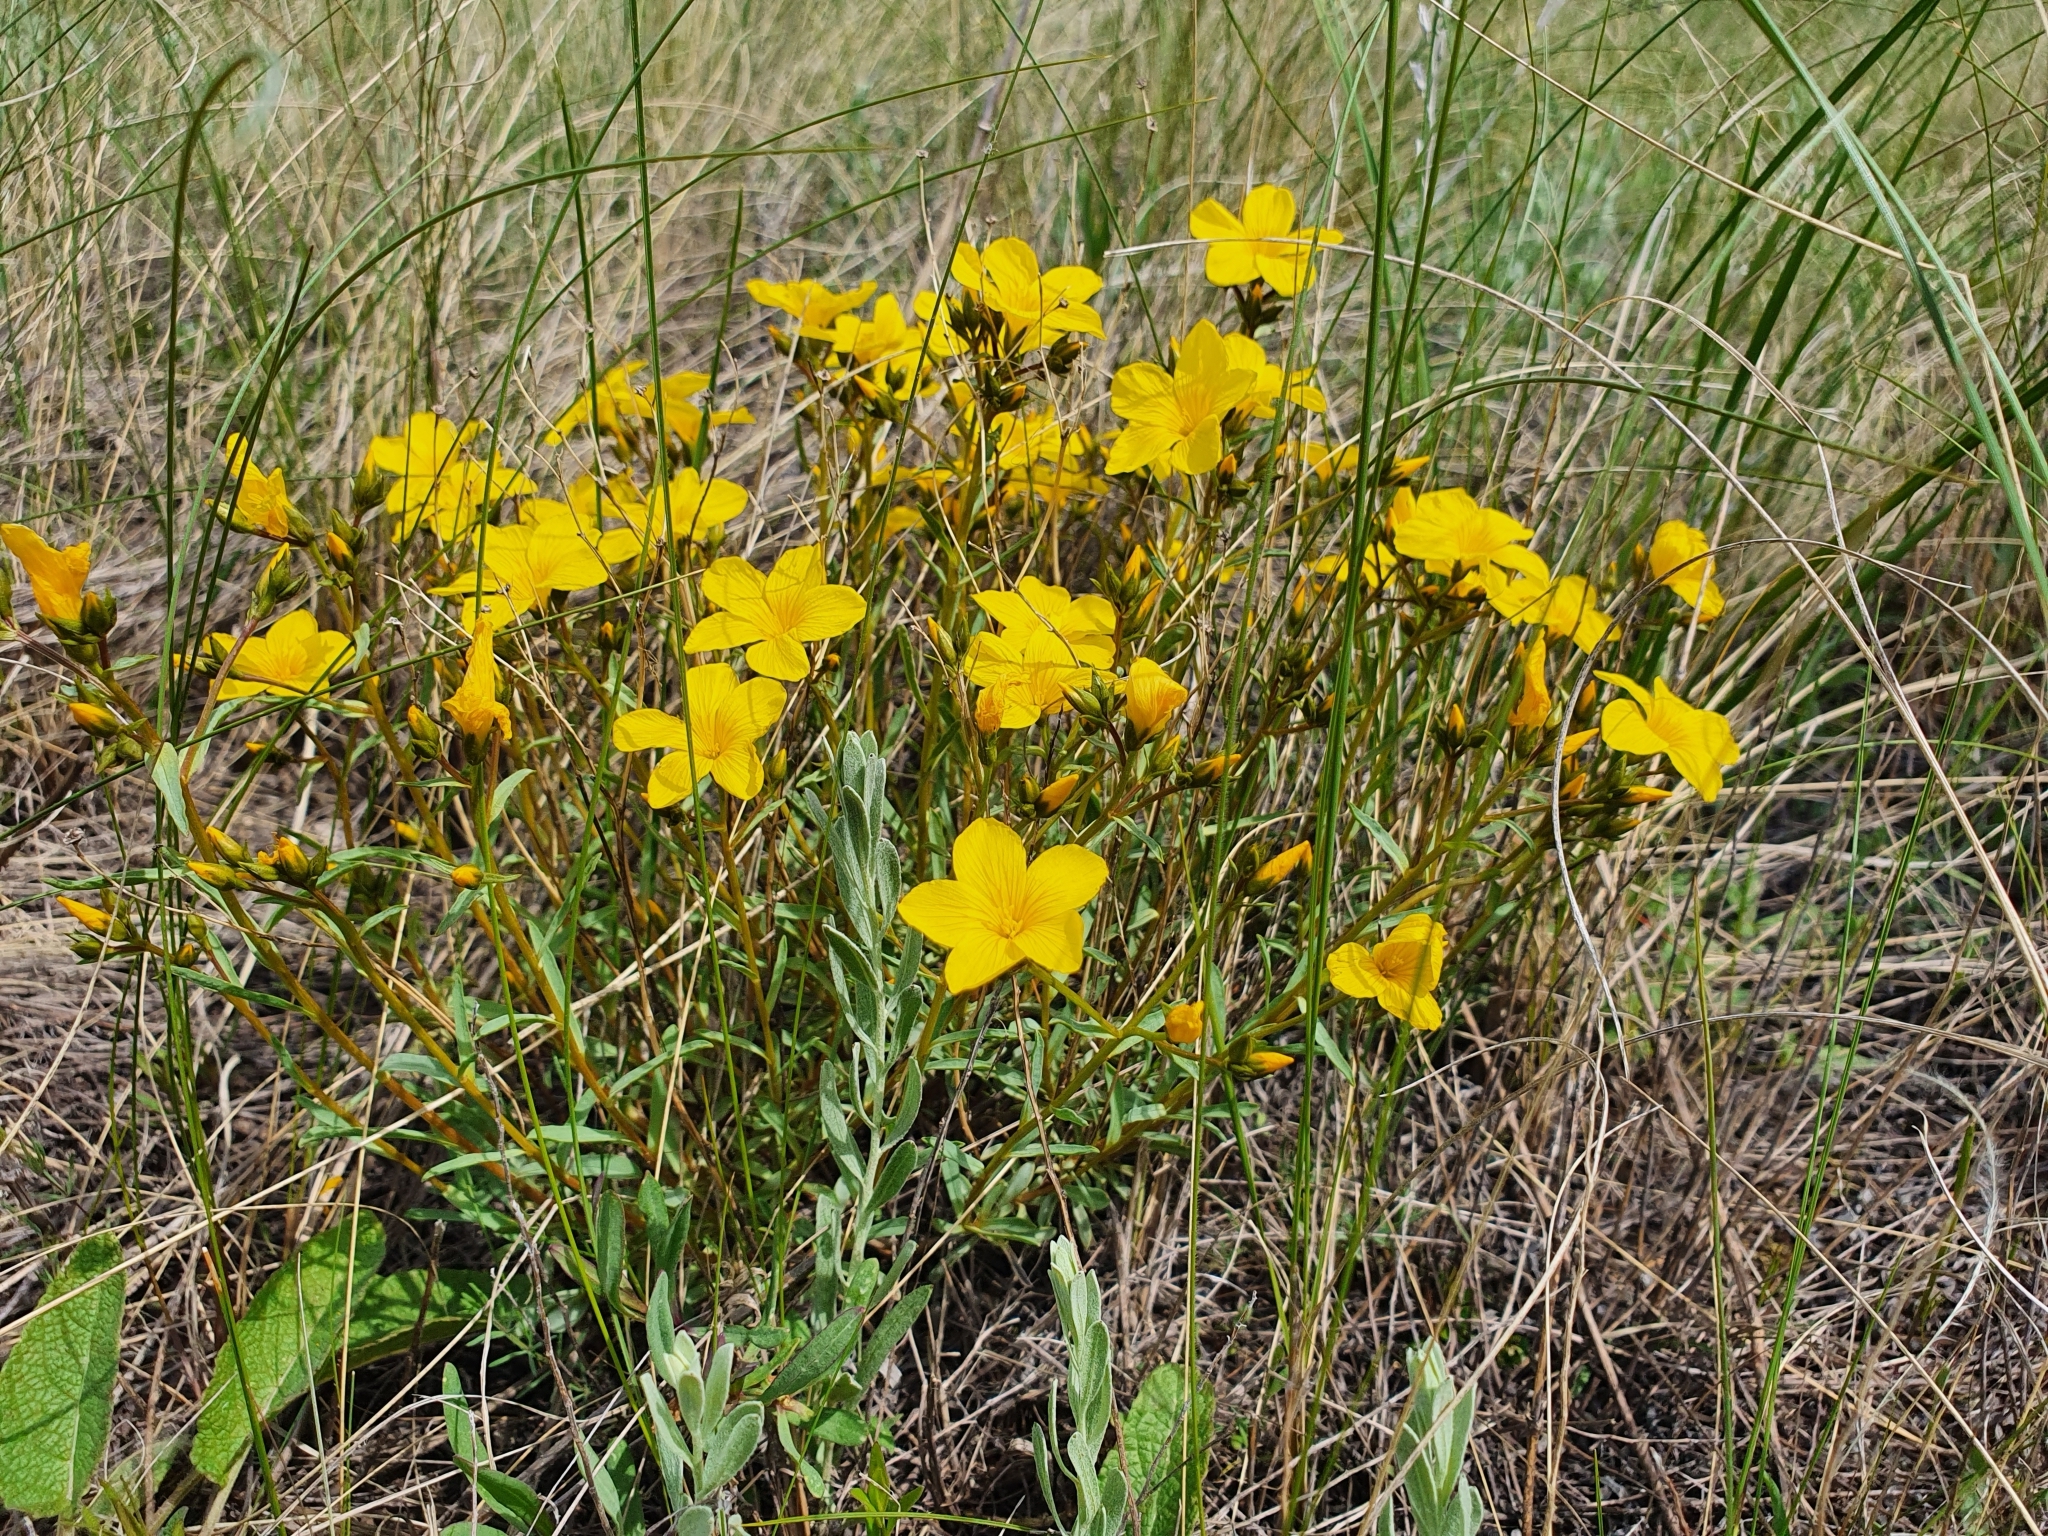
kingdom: Plantae
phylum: Tracheophyta
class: Magnoliopsida
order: Malpighiales
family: Linaceae
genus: Linum
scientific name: Linum ucranicum
